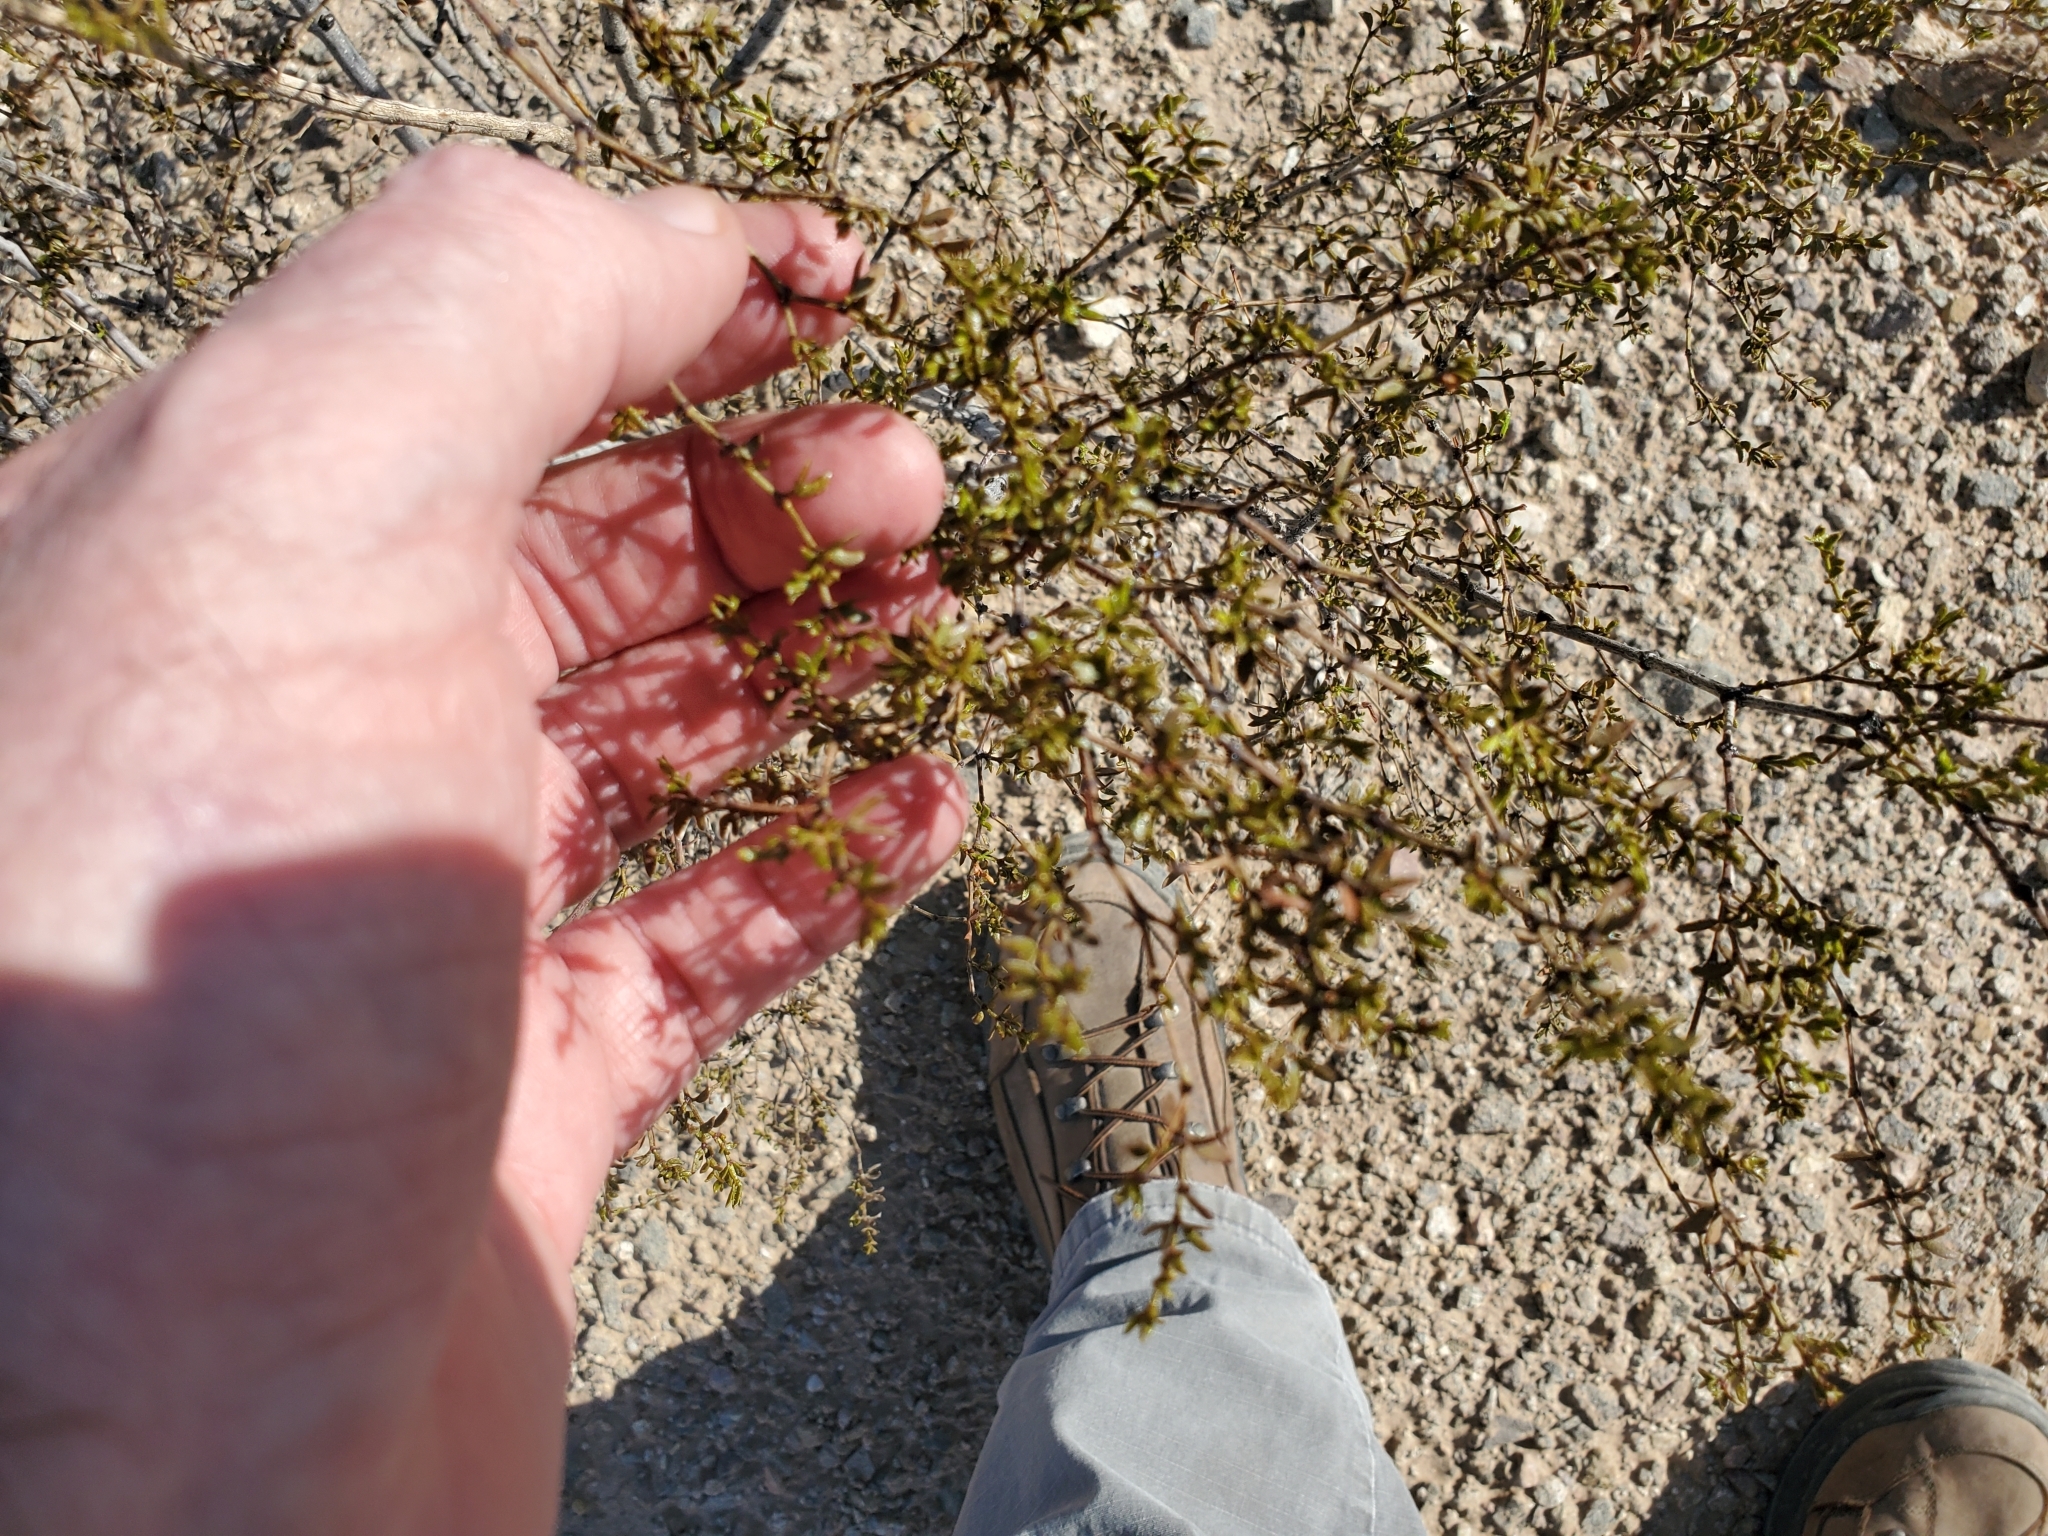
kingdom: Plantae
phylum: Tracheophyta
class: Magnoliopsida
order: Zygophyllales
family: Zygophyllaceae
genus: Larrea
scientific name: Larrea tridentata
